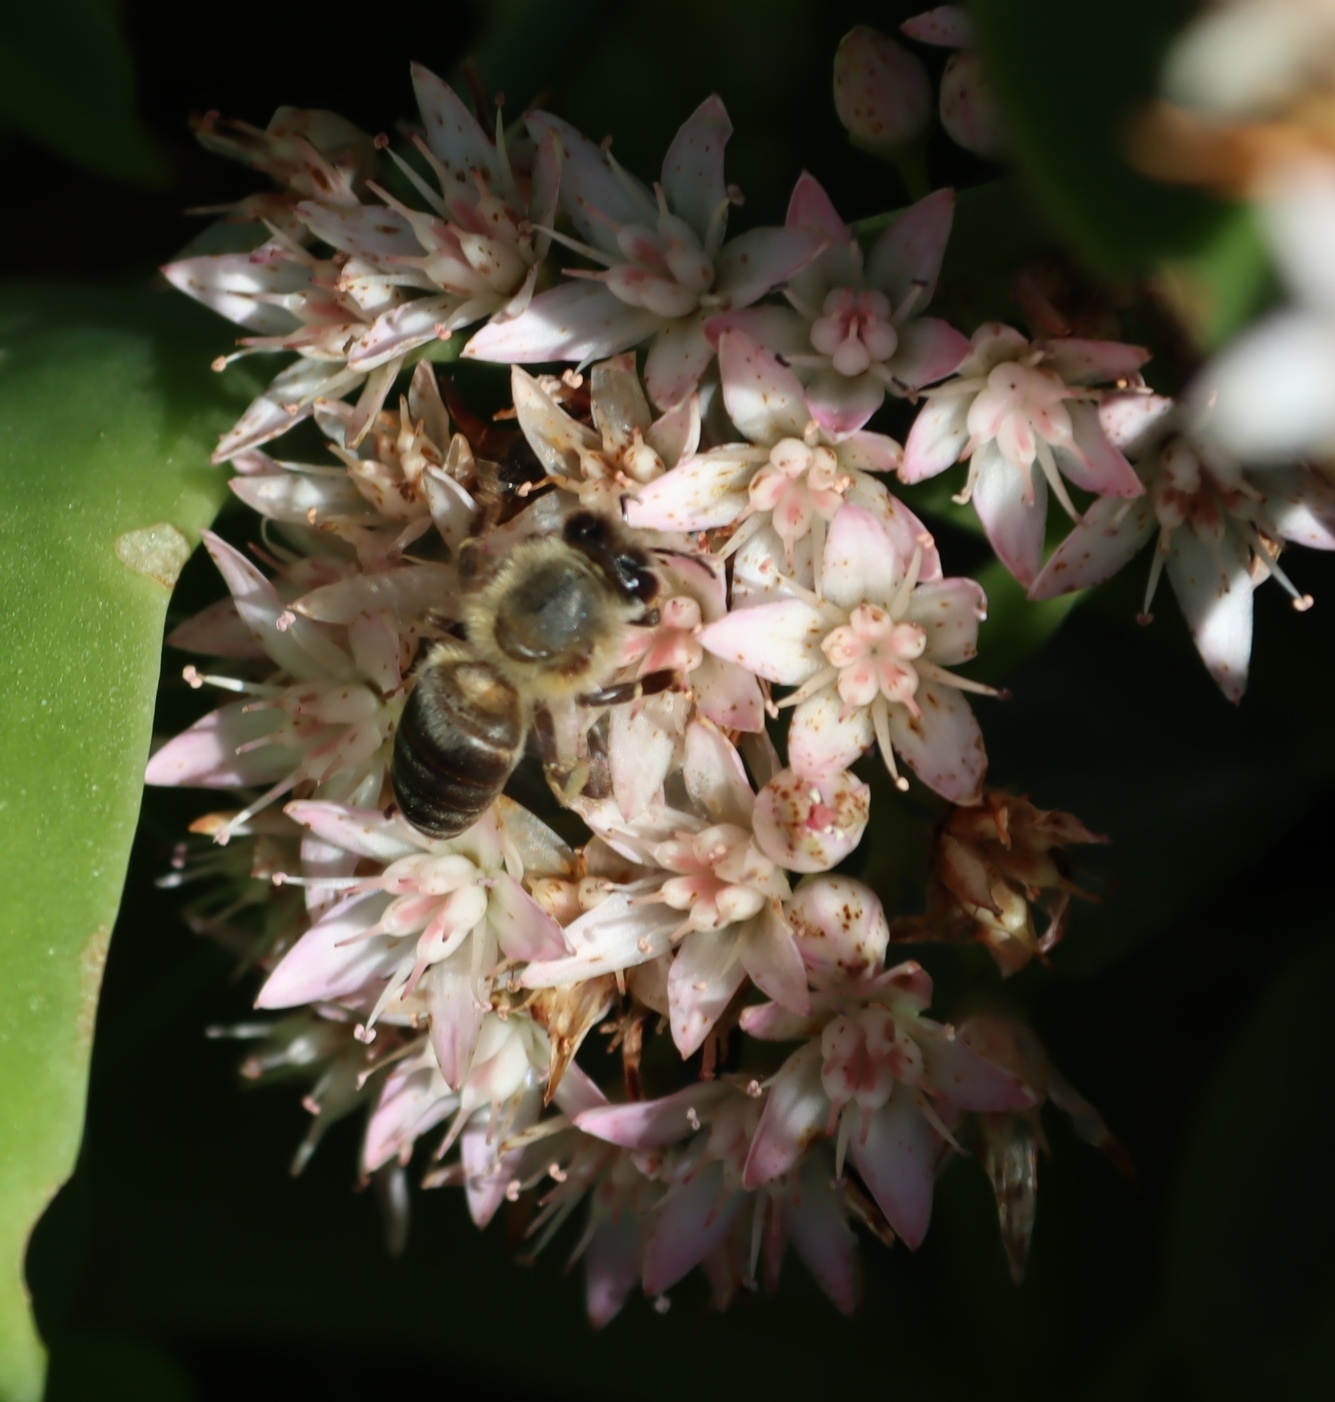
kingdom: Animalia
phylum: Arthropoda
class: Insecta
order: Hymenoptera
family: Apidae
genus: Apis
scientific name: Apis mellifera
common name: Honey bee
